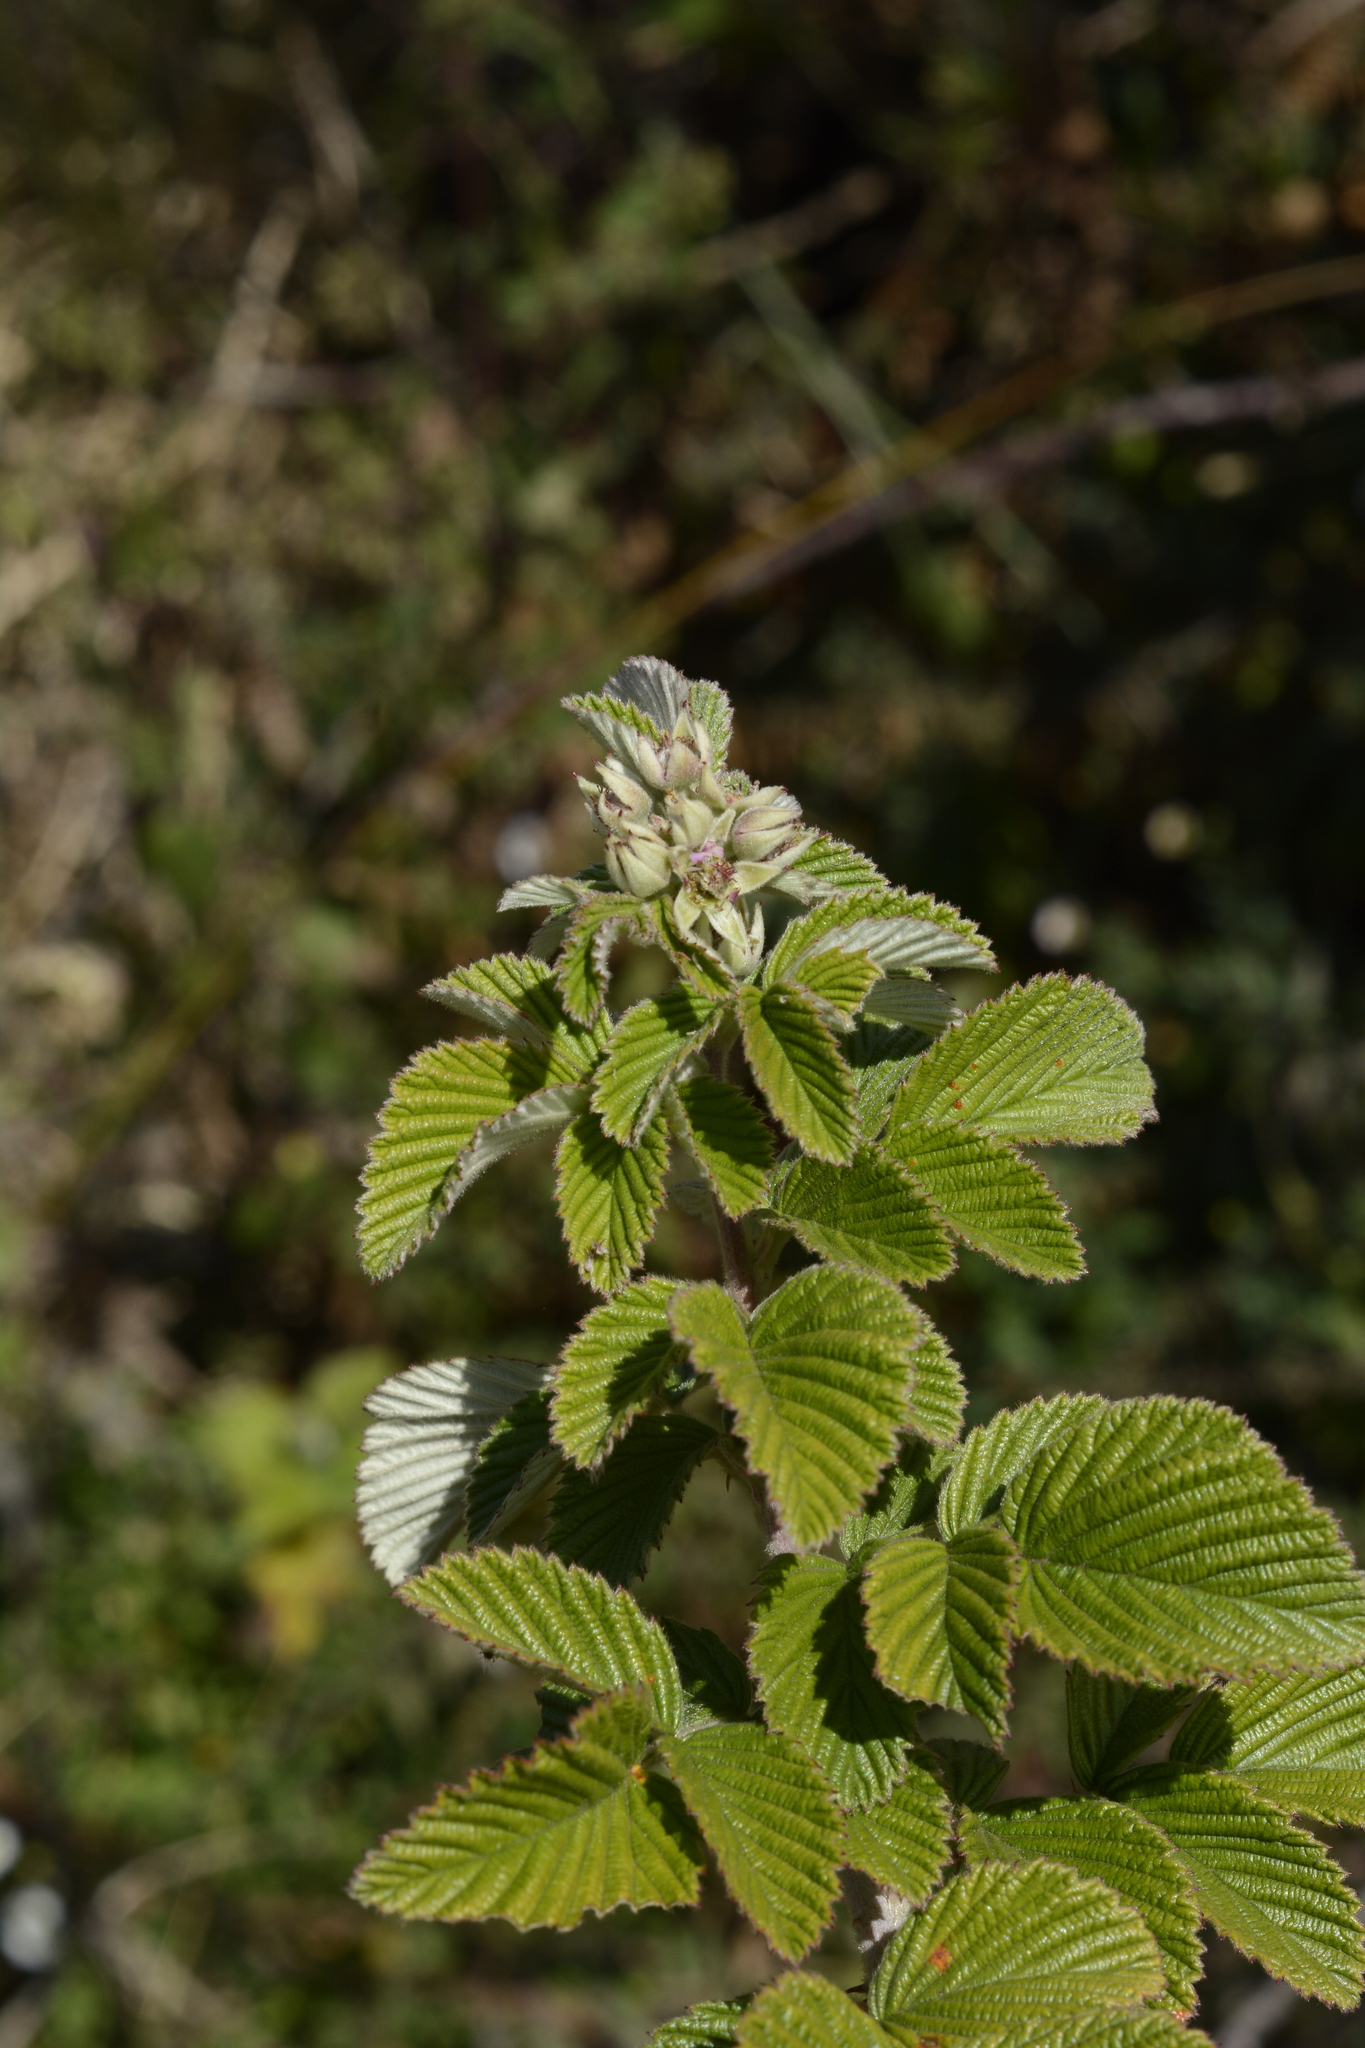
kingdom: Plantae
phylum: Tracheophyta
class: Magnoliopsida
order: Rosales
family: Rosaceae
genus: Rubus
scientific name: Rubus niveus
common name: Snowpeaks raspberry
